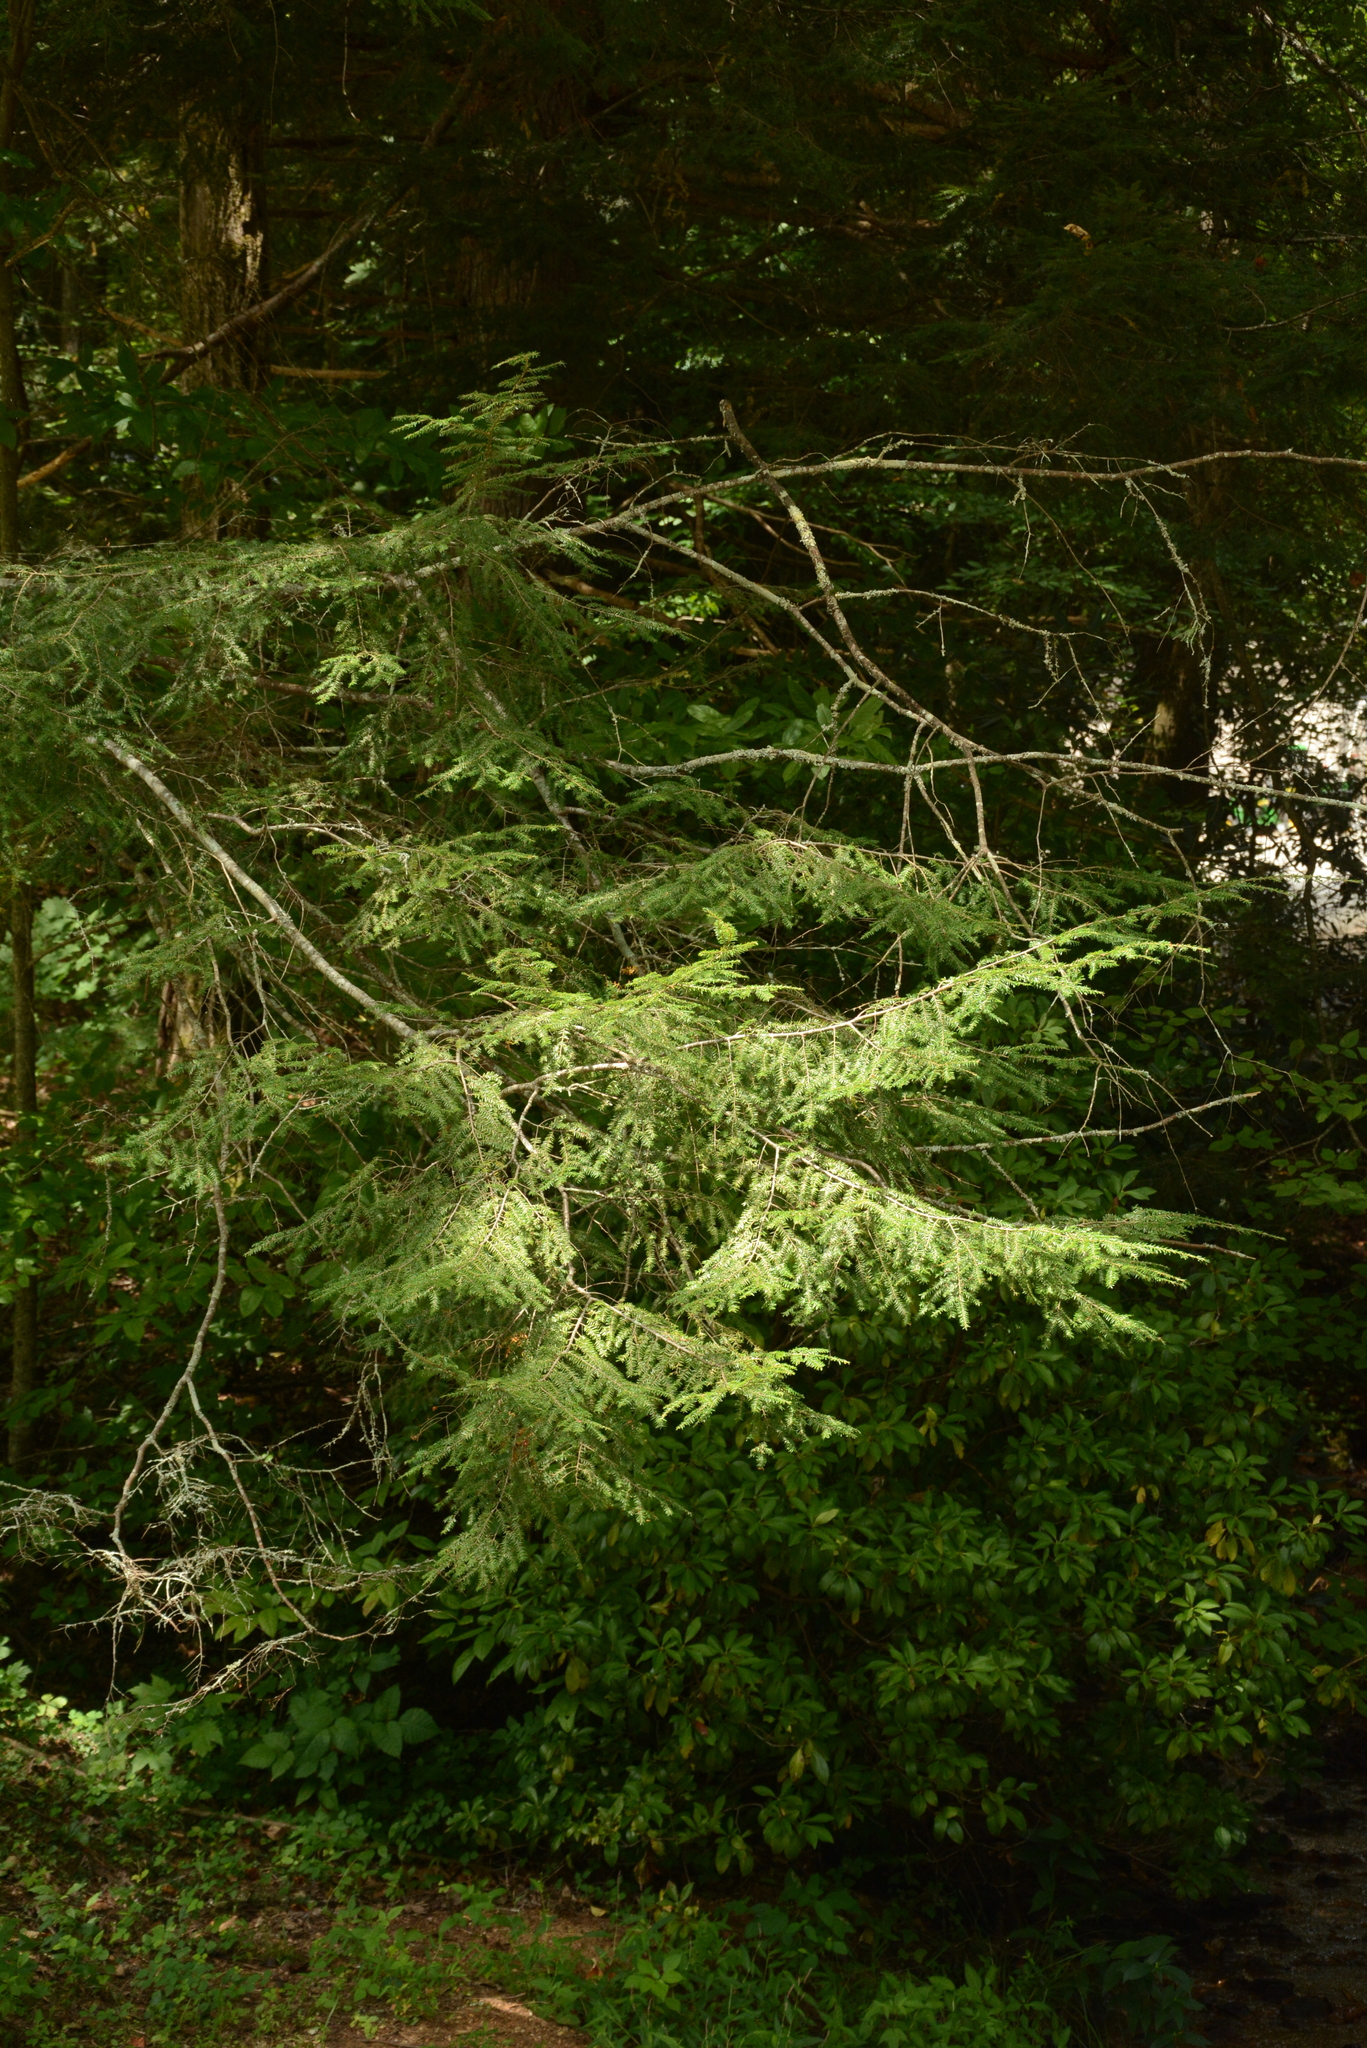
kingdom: Plantae
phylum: Tracheophyta
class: Pinopsida
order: Pinales
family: Pinaceae
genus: Tsuga
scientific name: Tsuga canadensis
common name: Eastern hemlock
